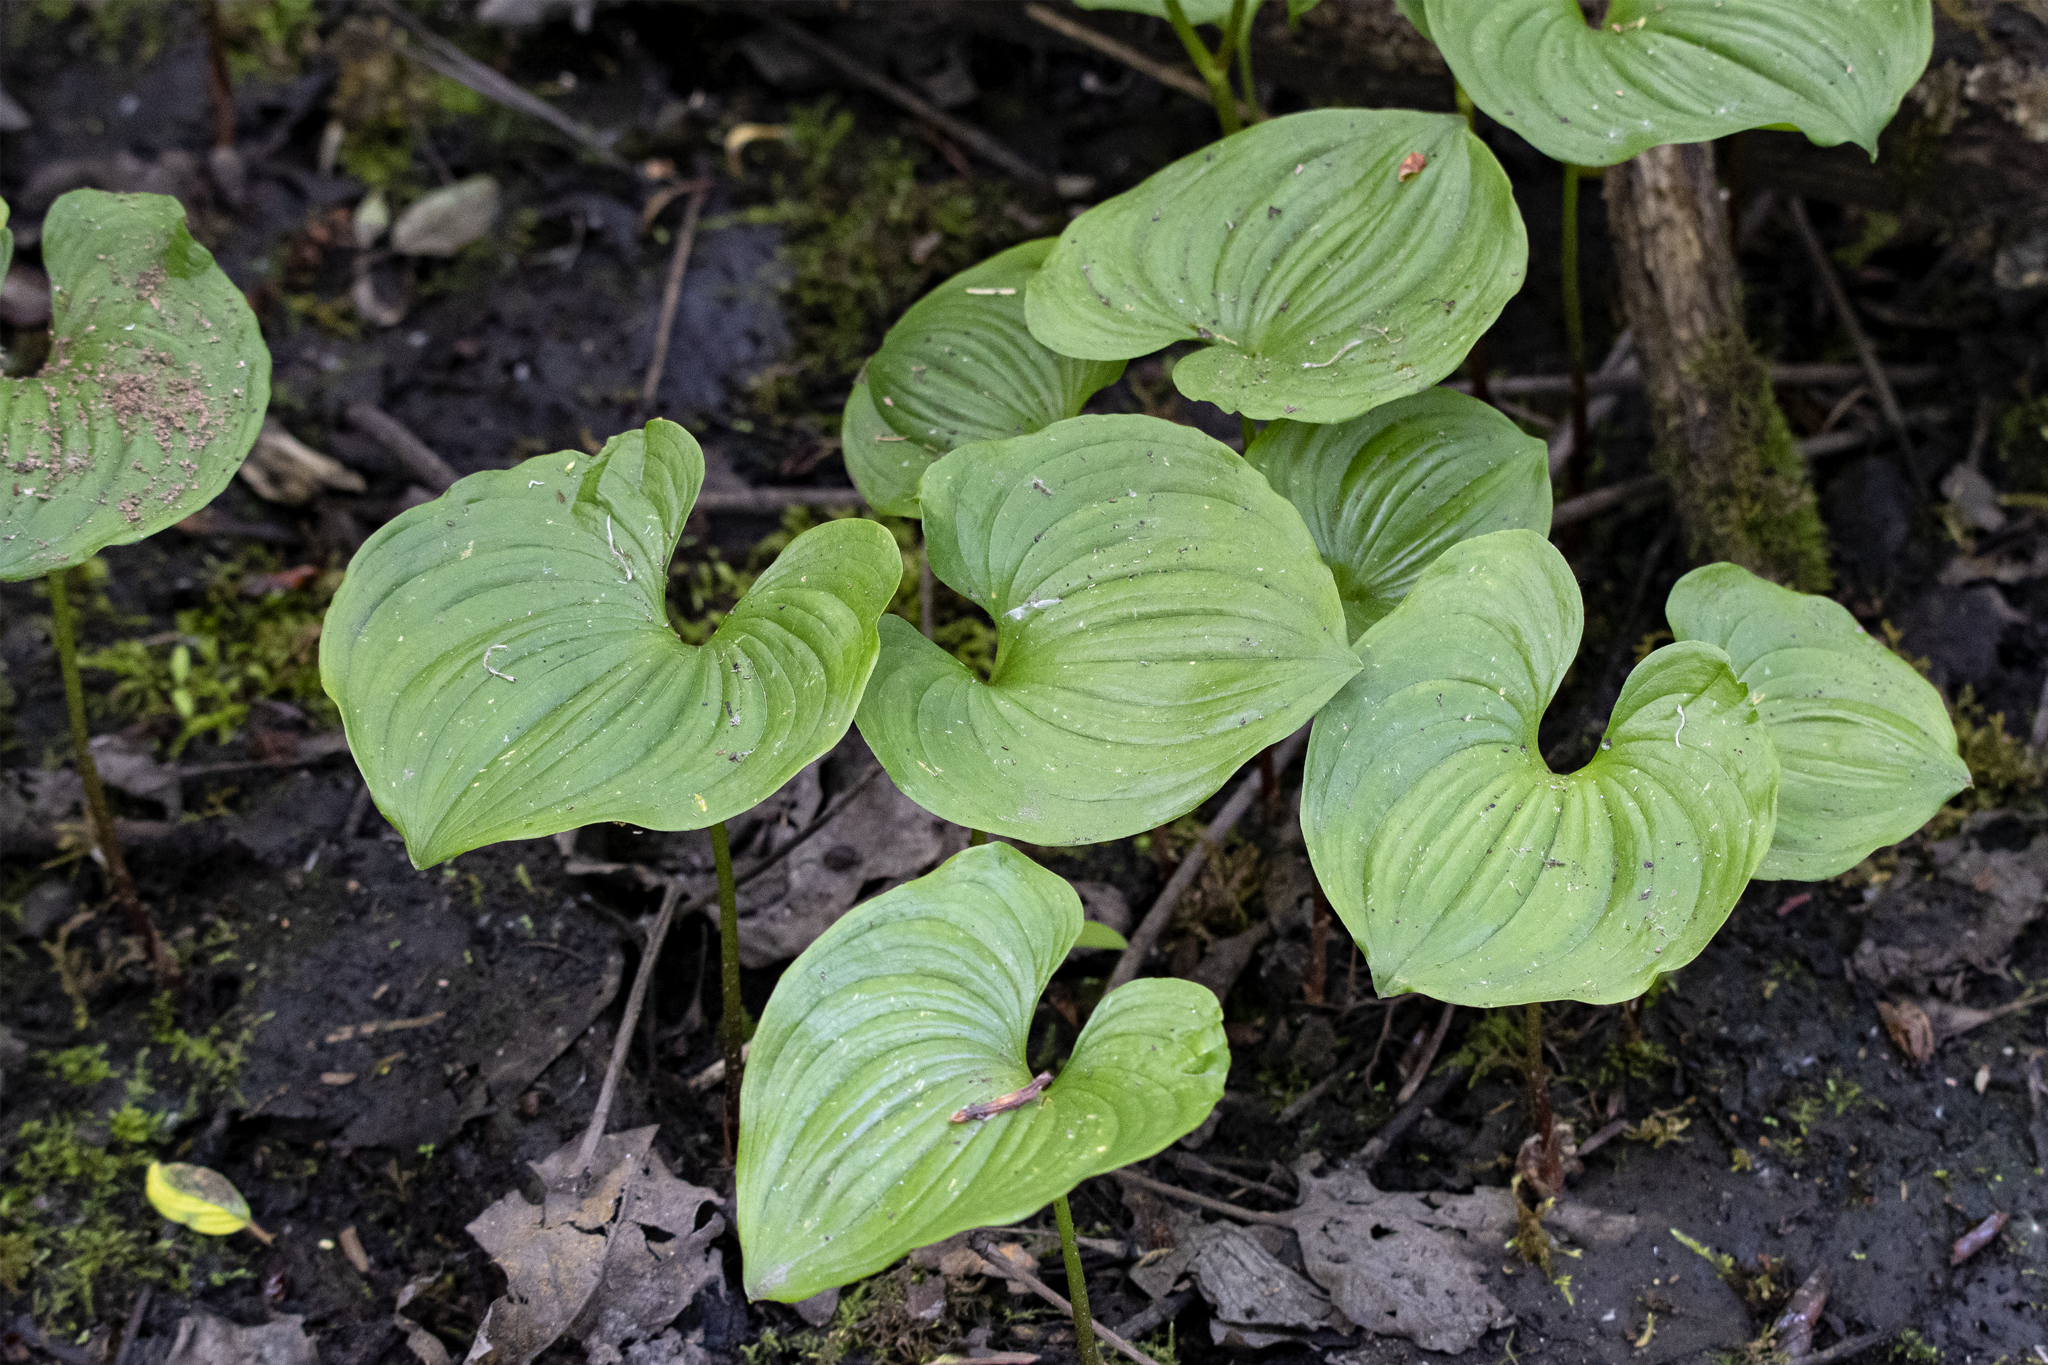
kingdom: Plantae
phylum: Tracheophyta
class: Liliopsida
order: Asparagales
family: Asparagaceae
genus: Maianthemum
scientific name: Maianthemum dilatatum
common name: False lily-of-the-valley
